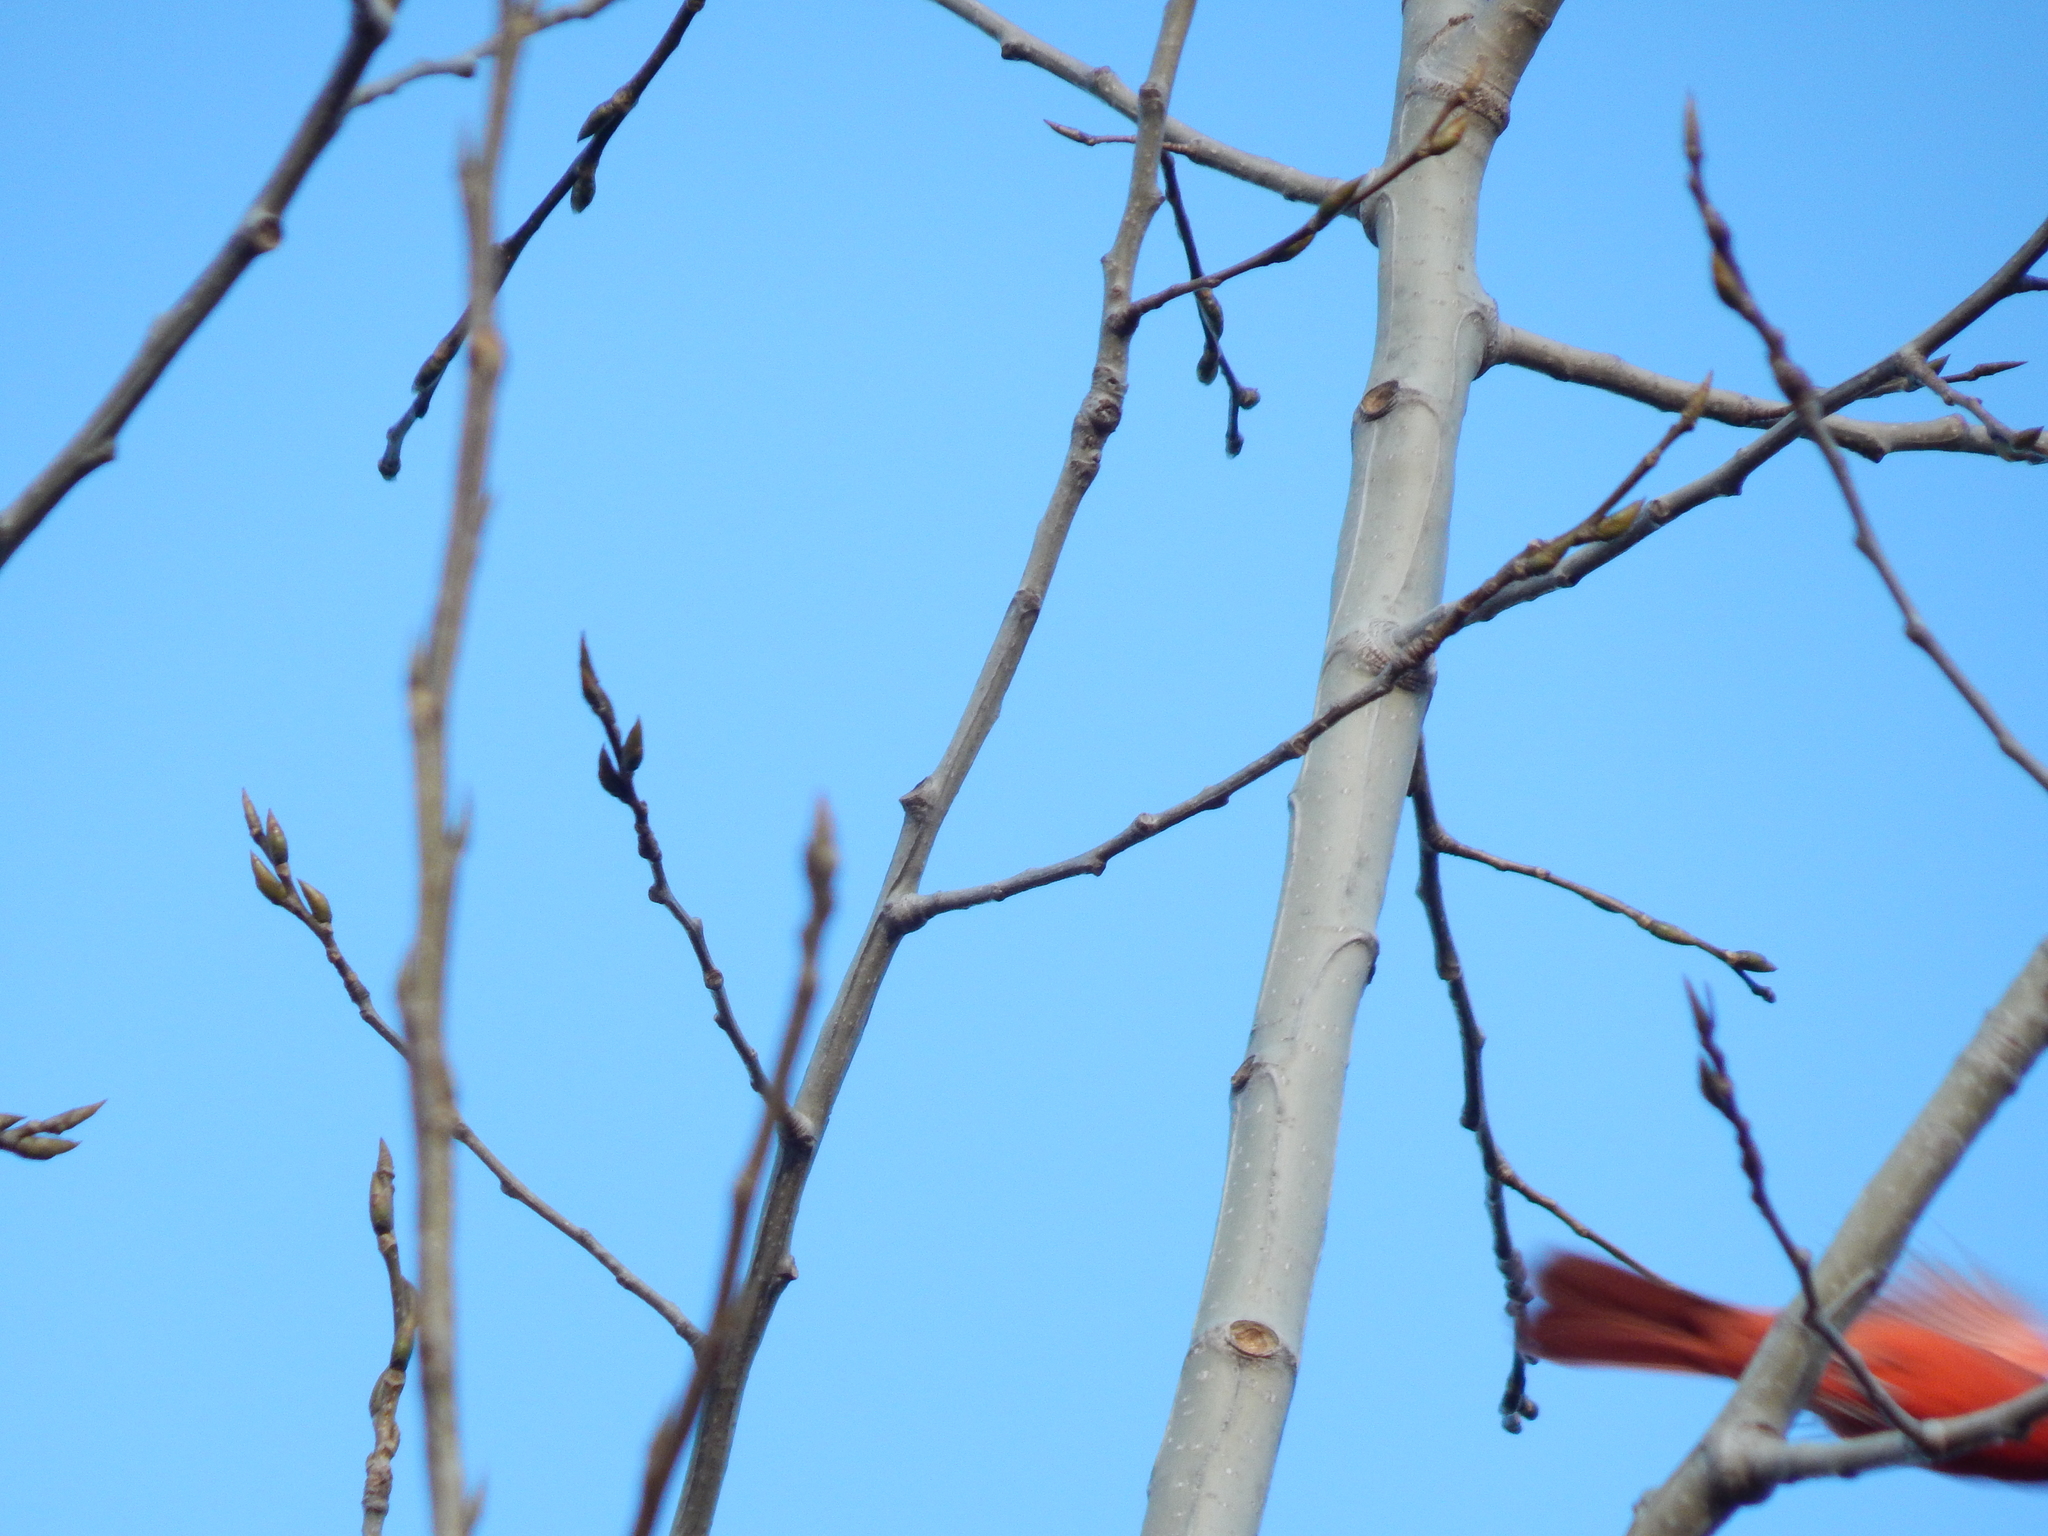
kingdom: Animalia
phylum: Chordata
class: Aves
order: Passeriformes
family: Cardinalidae
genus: Cardinalis
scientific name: Cardinalis cardinalis
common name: Northern cardinal
